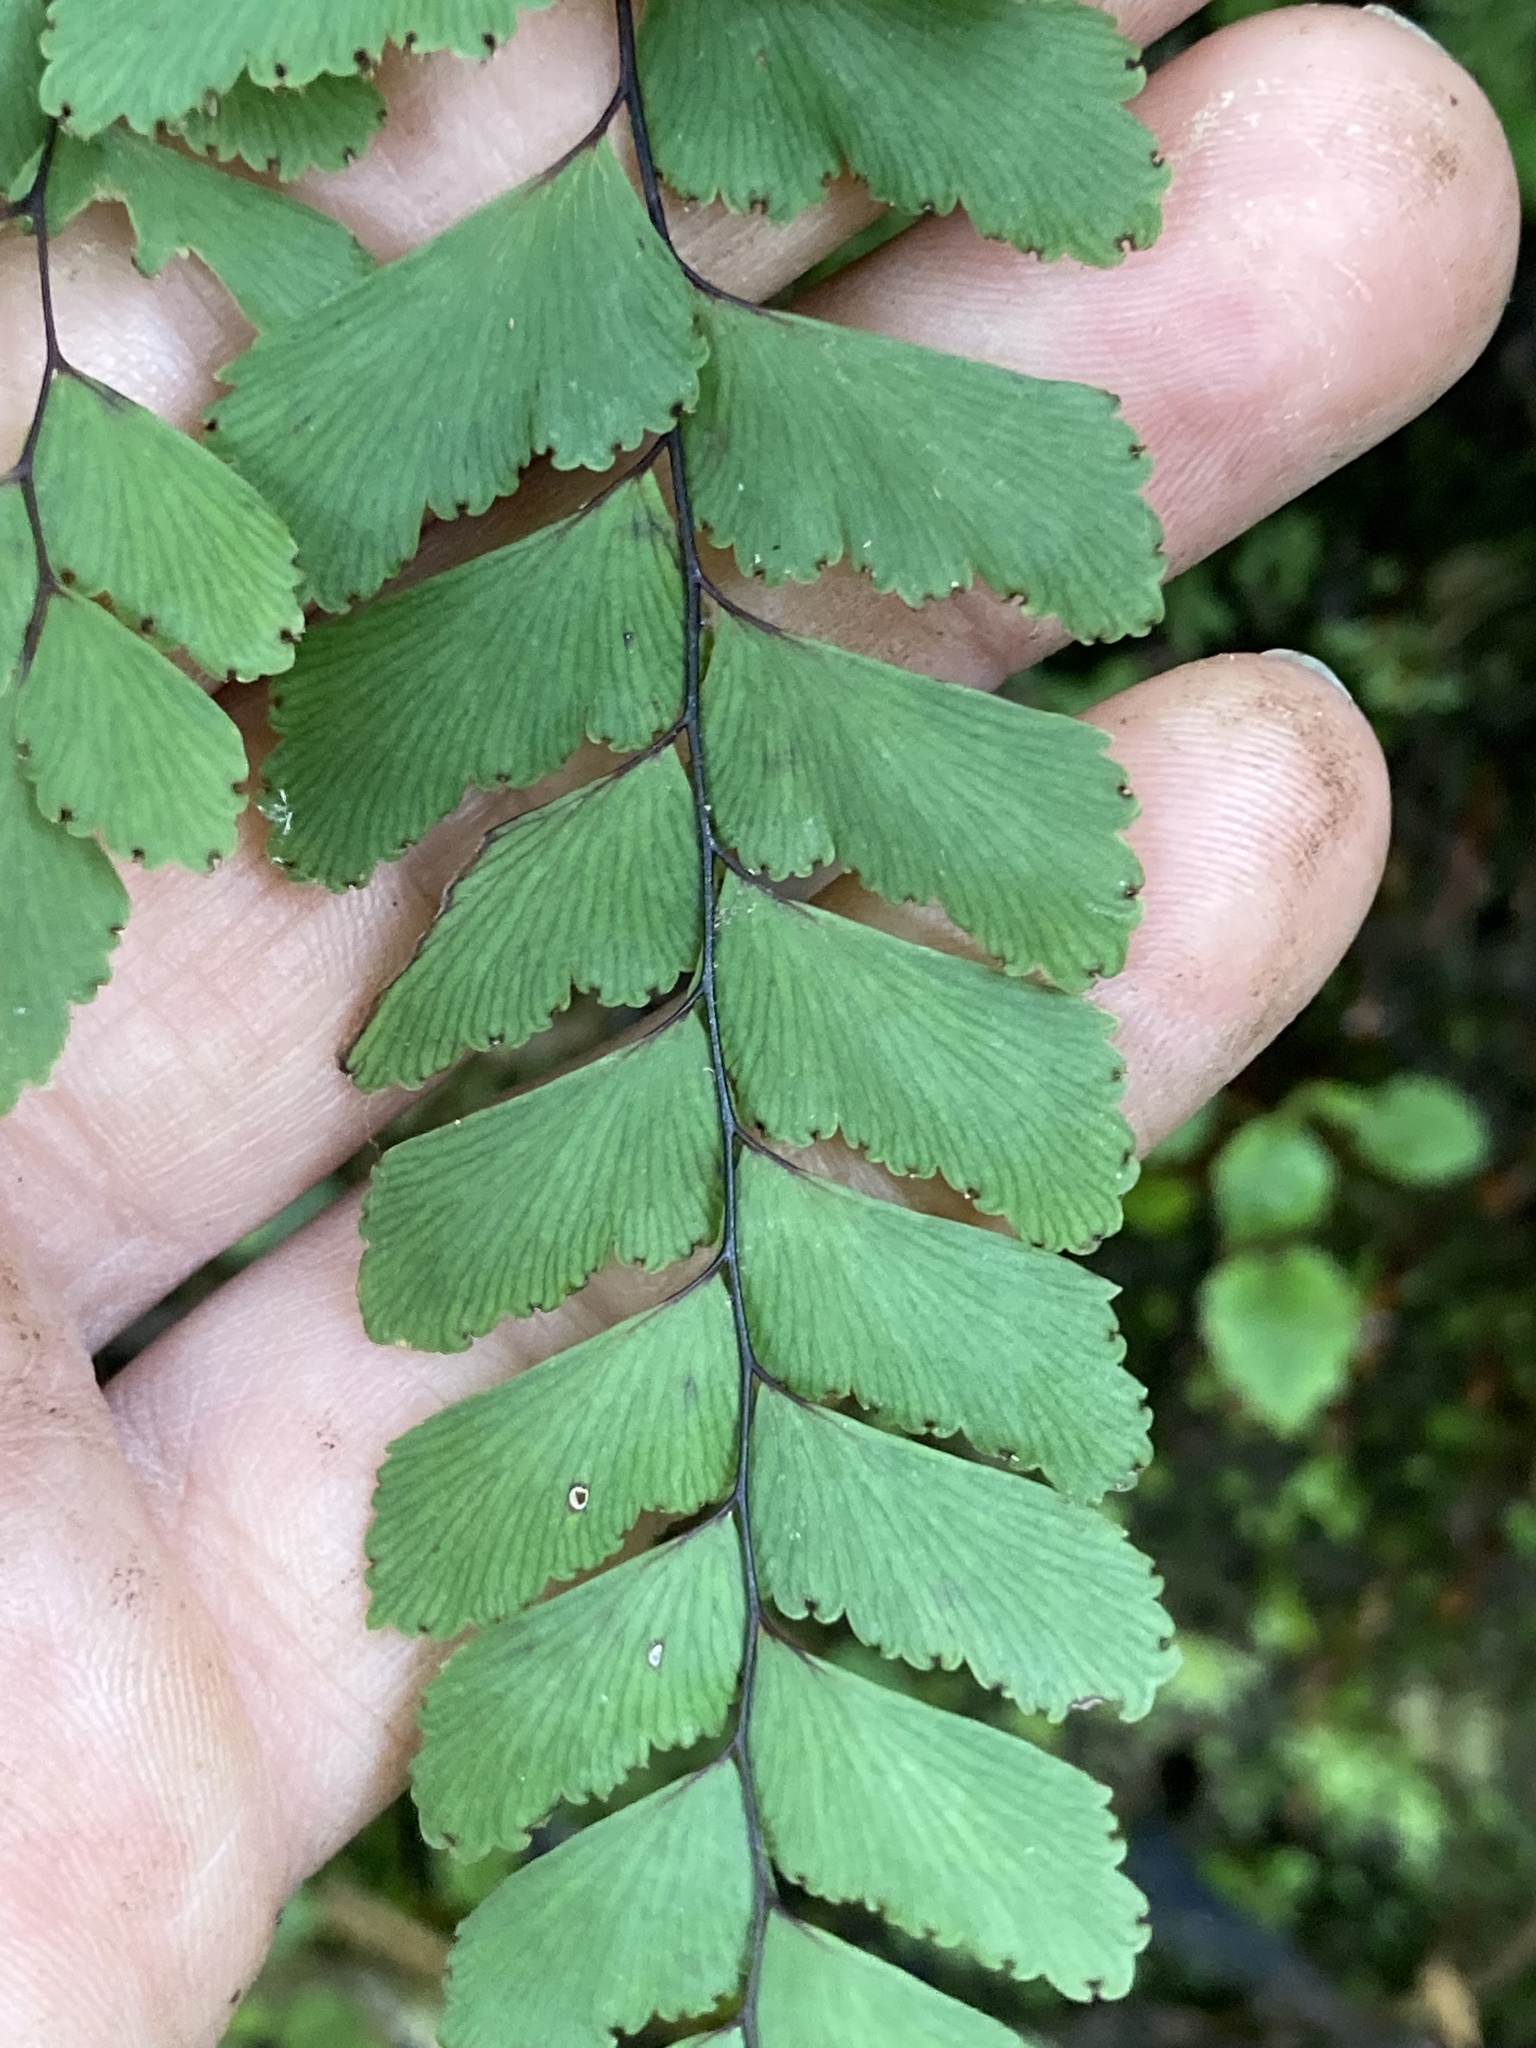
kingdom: Plantae
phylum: Tracheophyta
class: Polypodiopsida
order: Polypodiales
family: Pteridaceae
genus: Adiantum
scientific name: Adiantum cunninghamii
